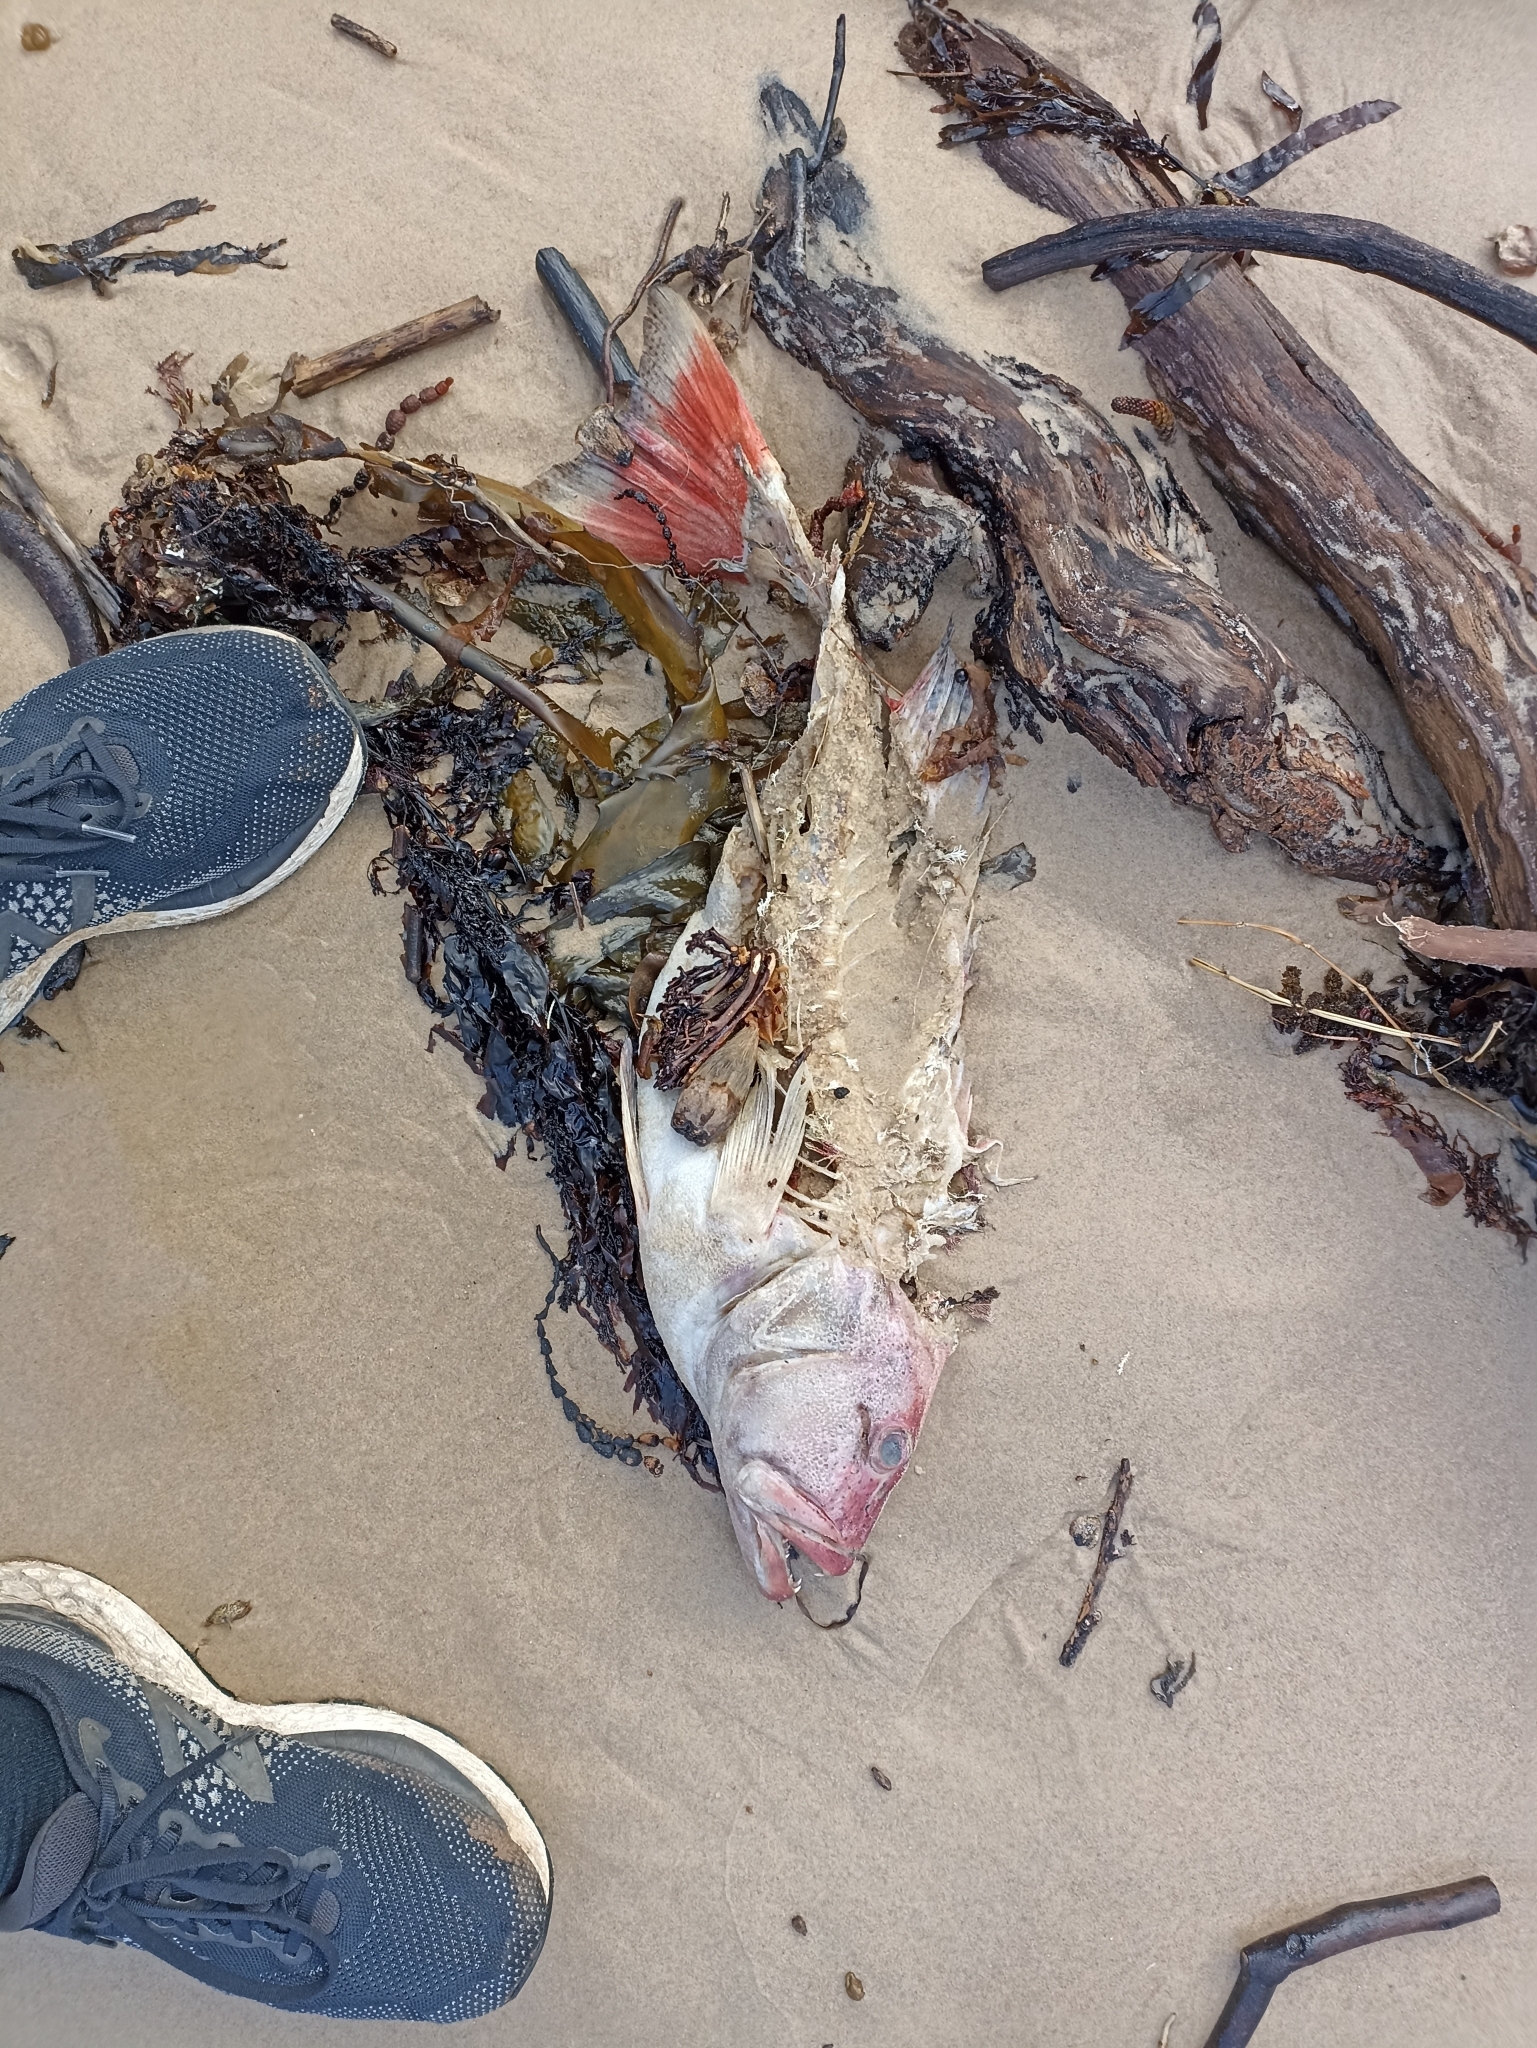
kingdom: Animalia
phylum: Chordata
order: Perciformes
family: Serranidae
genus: Plectropomus
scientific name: Plectropomus leopardus
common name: Coral trout
